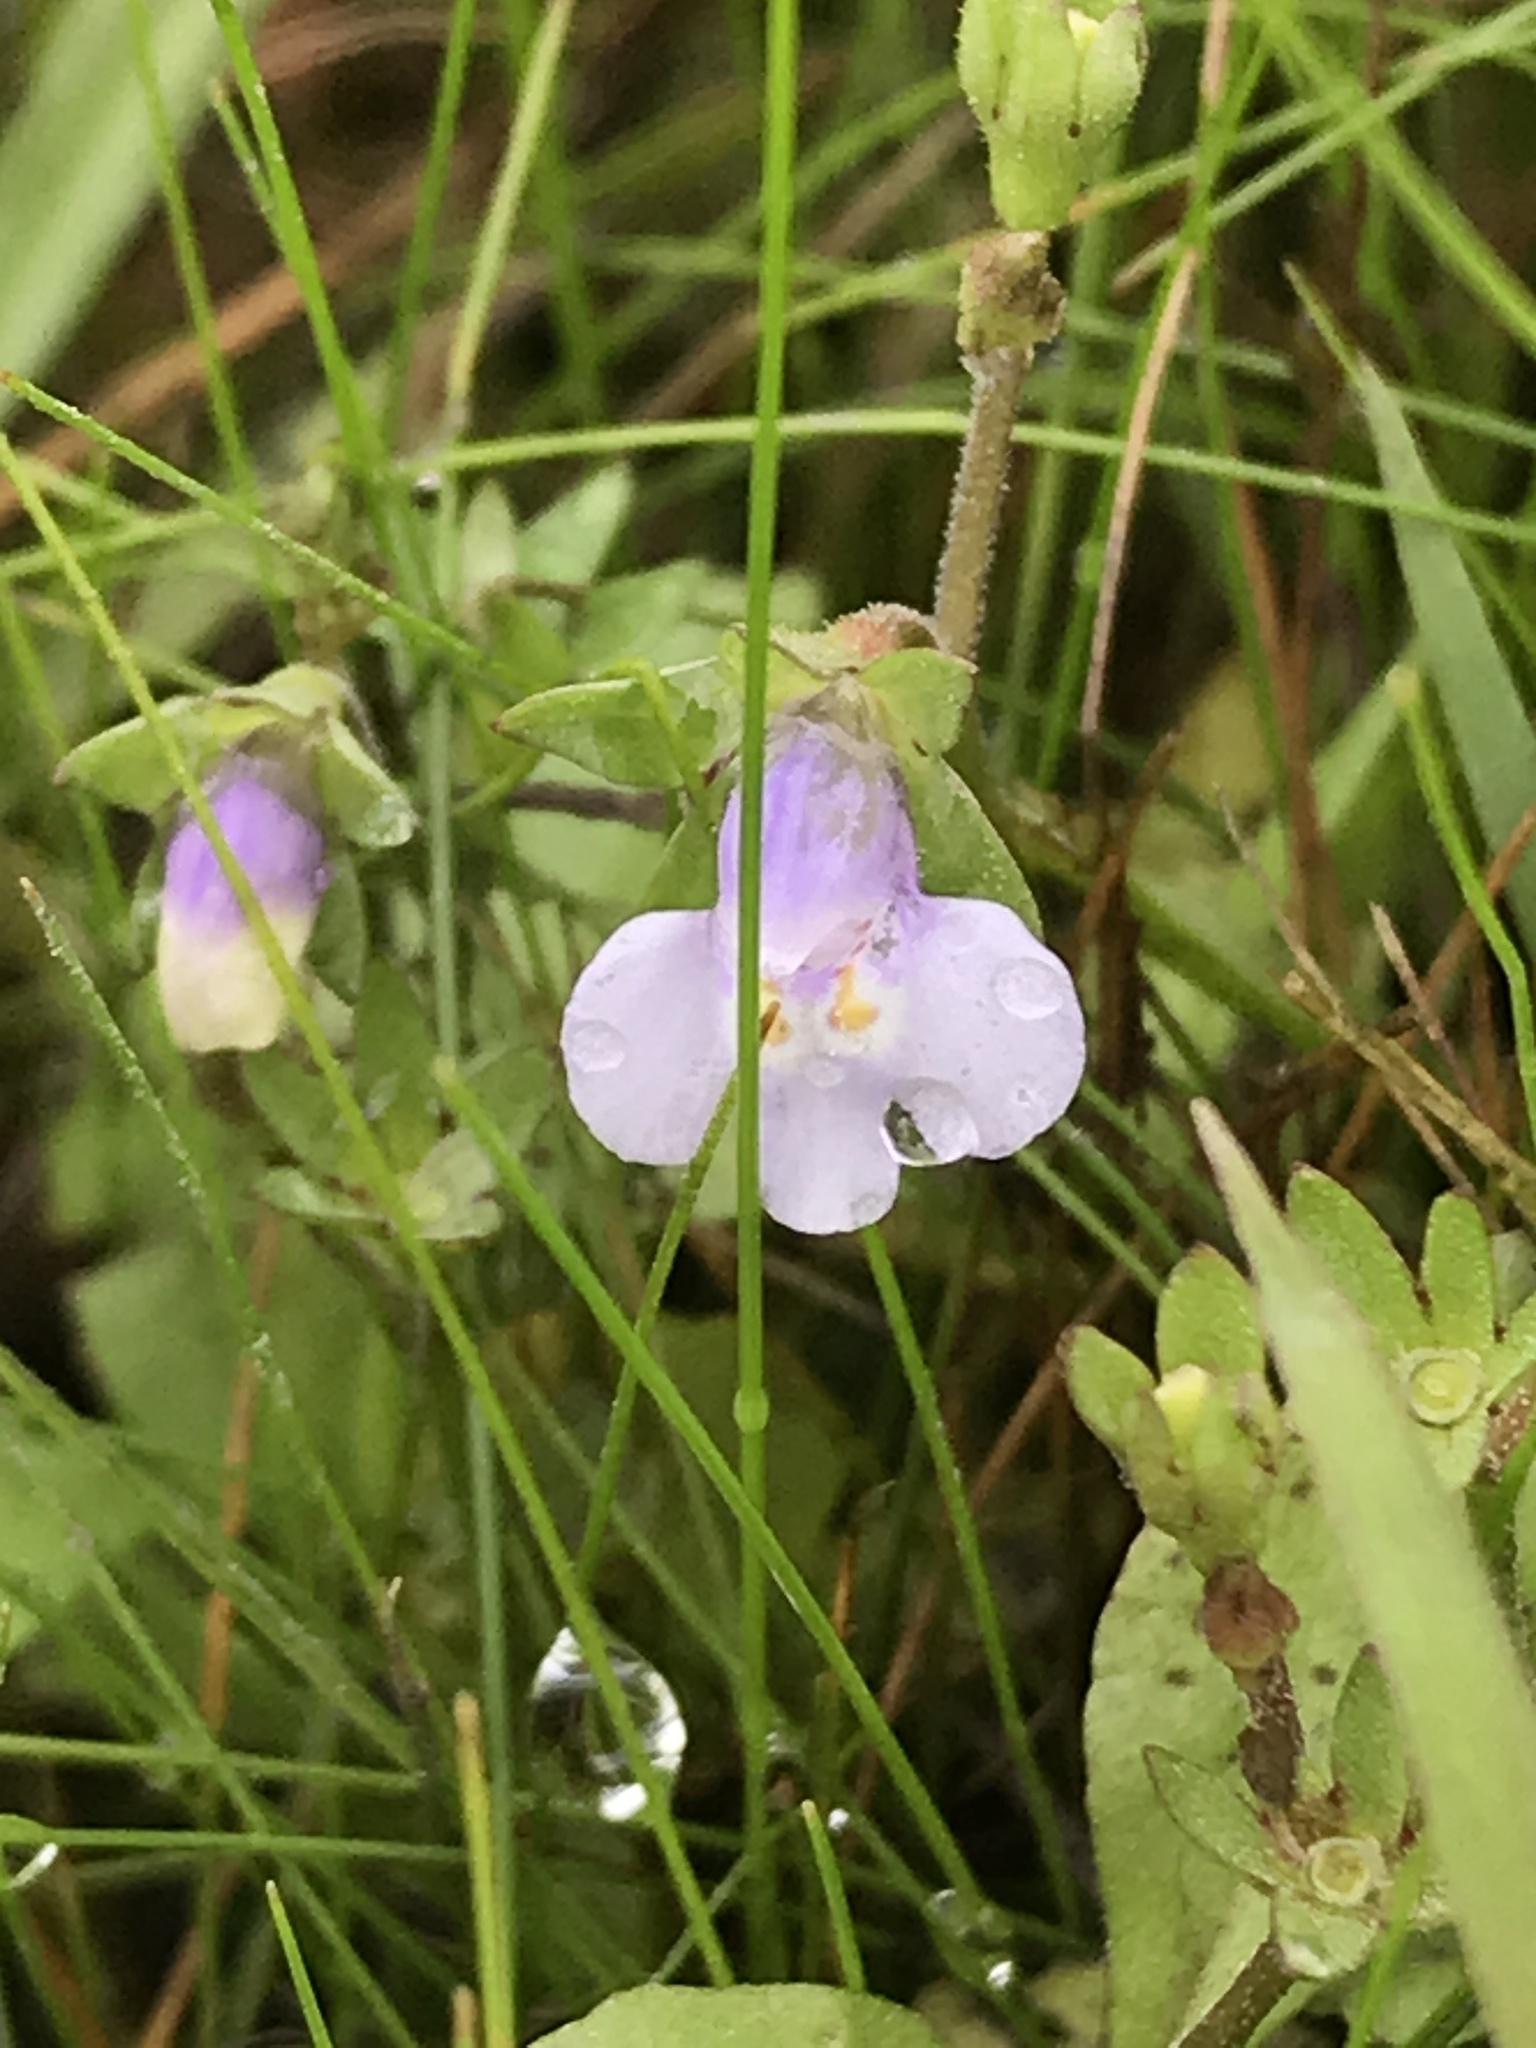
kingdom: Plantae
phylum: Tracheophyta
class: Magnoliopsida
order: Lamiales
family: Mazaceae
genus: Mazus
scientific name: Mazus pumilus
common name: Japanese mazus
